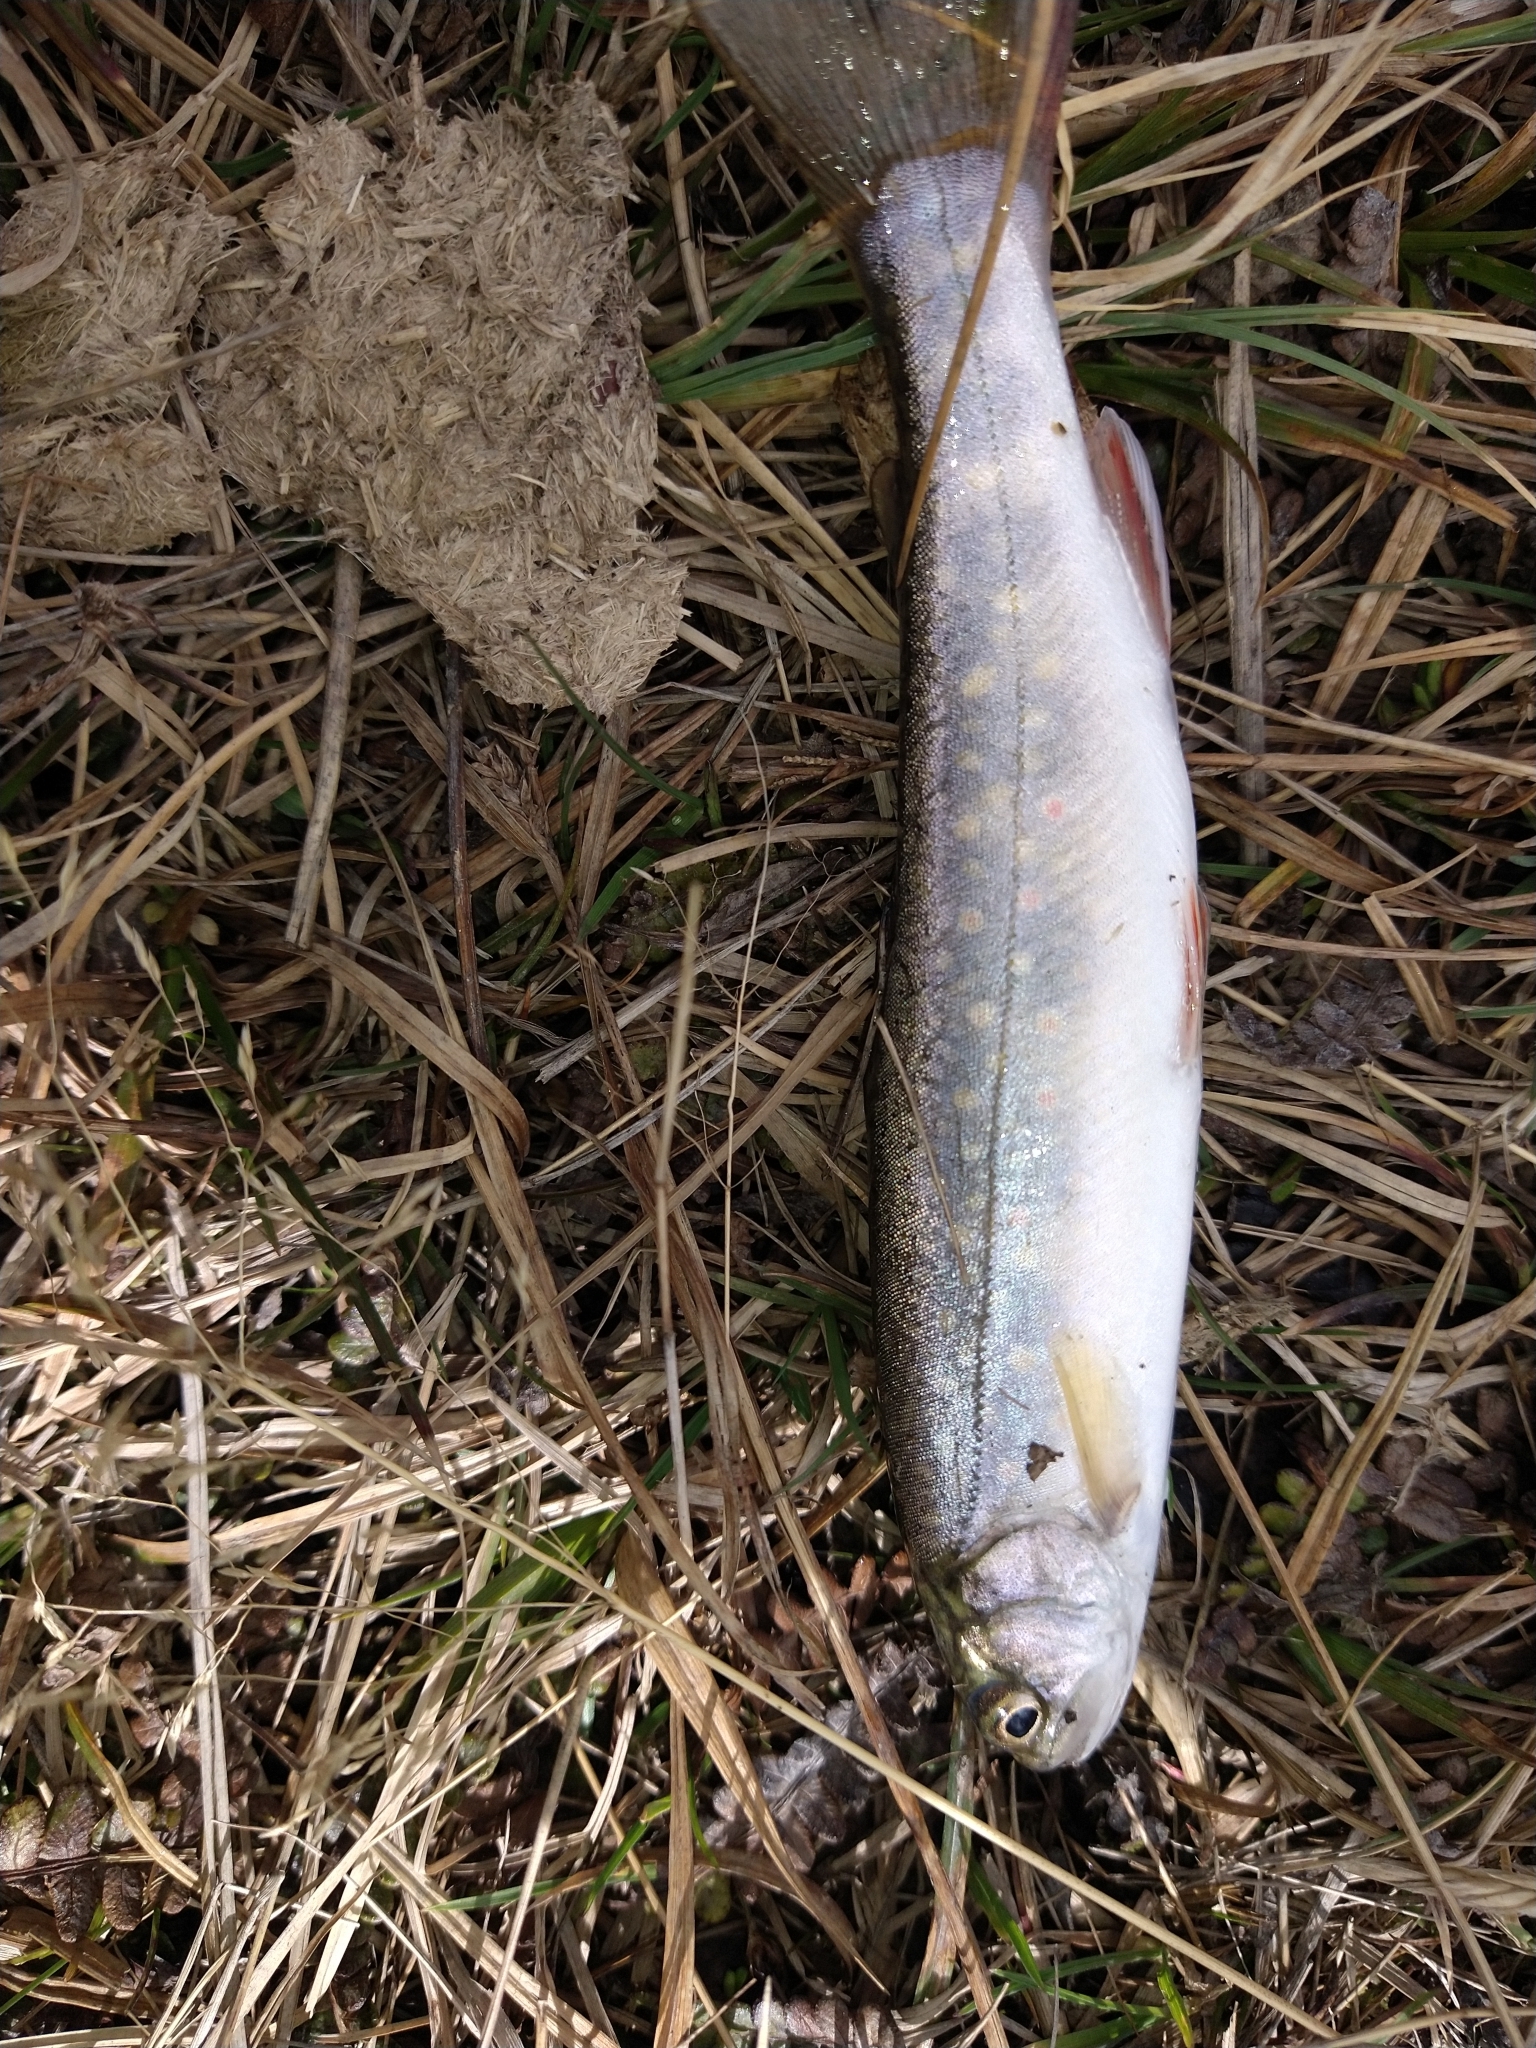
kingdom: Animalia
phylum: Chordata
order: Salmoniformes
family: Salmonidae
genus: Salvelinus
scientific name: Salvelinus fontinalis
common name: Brook trout
